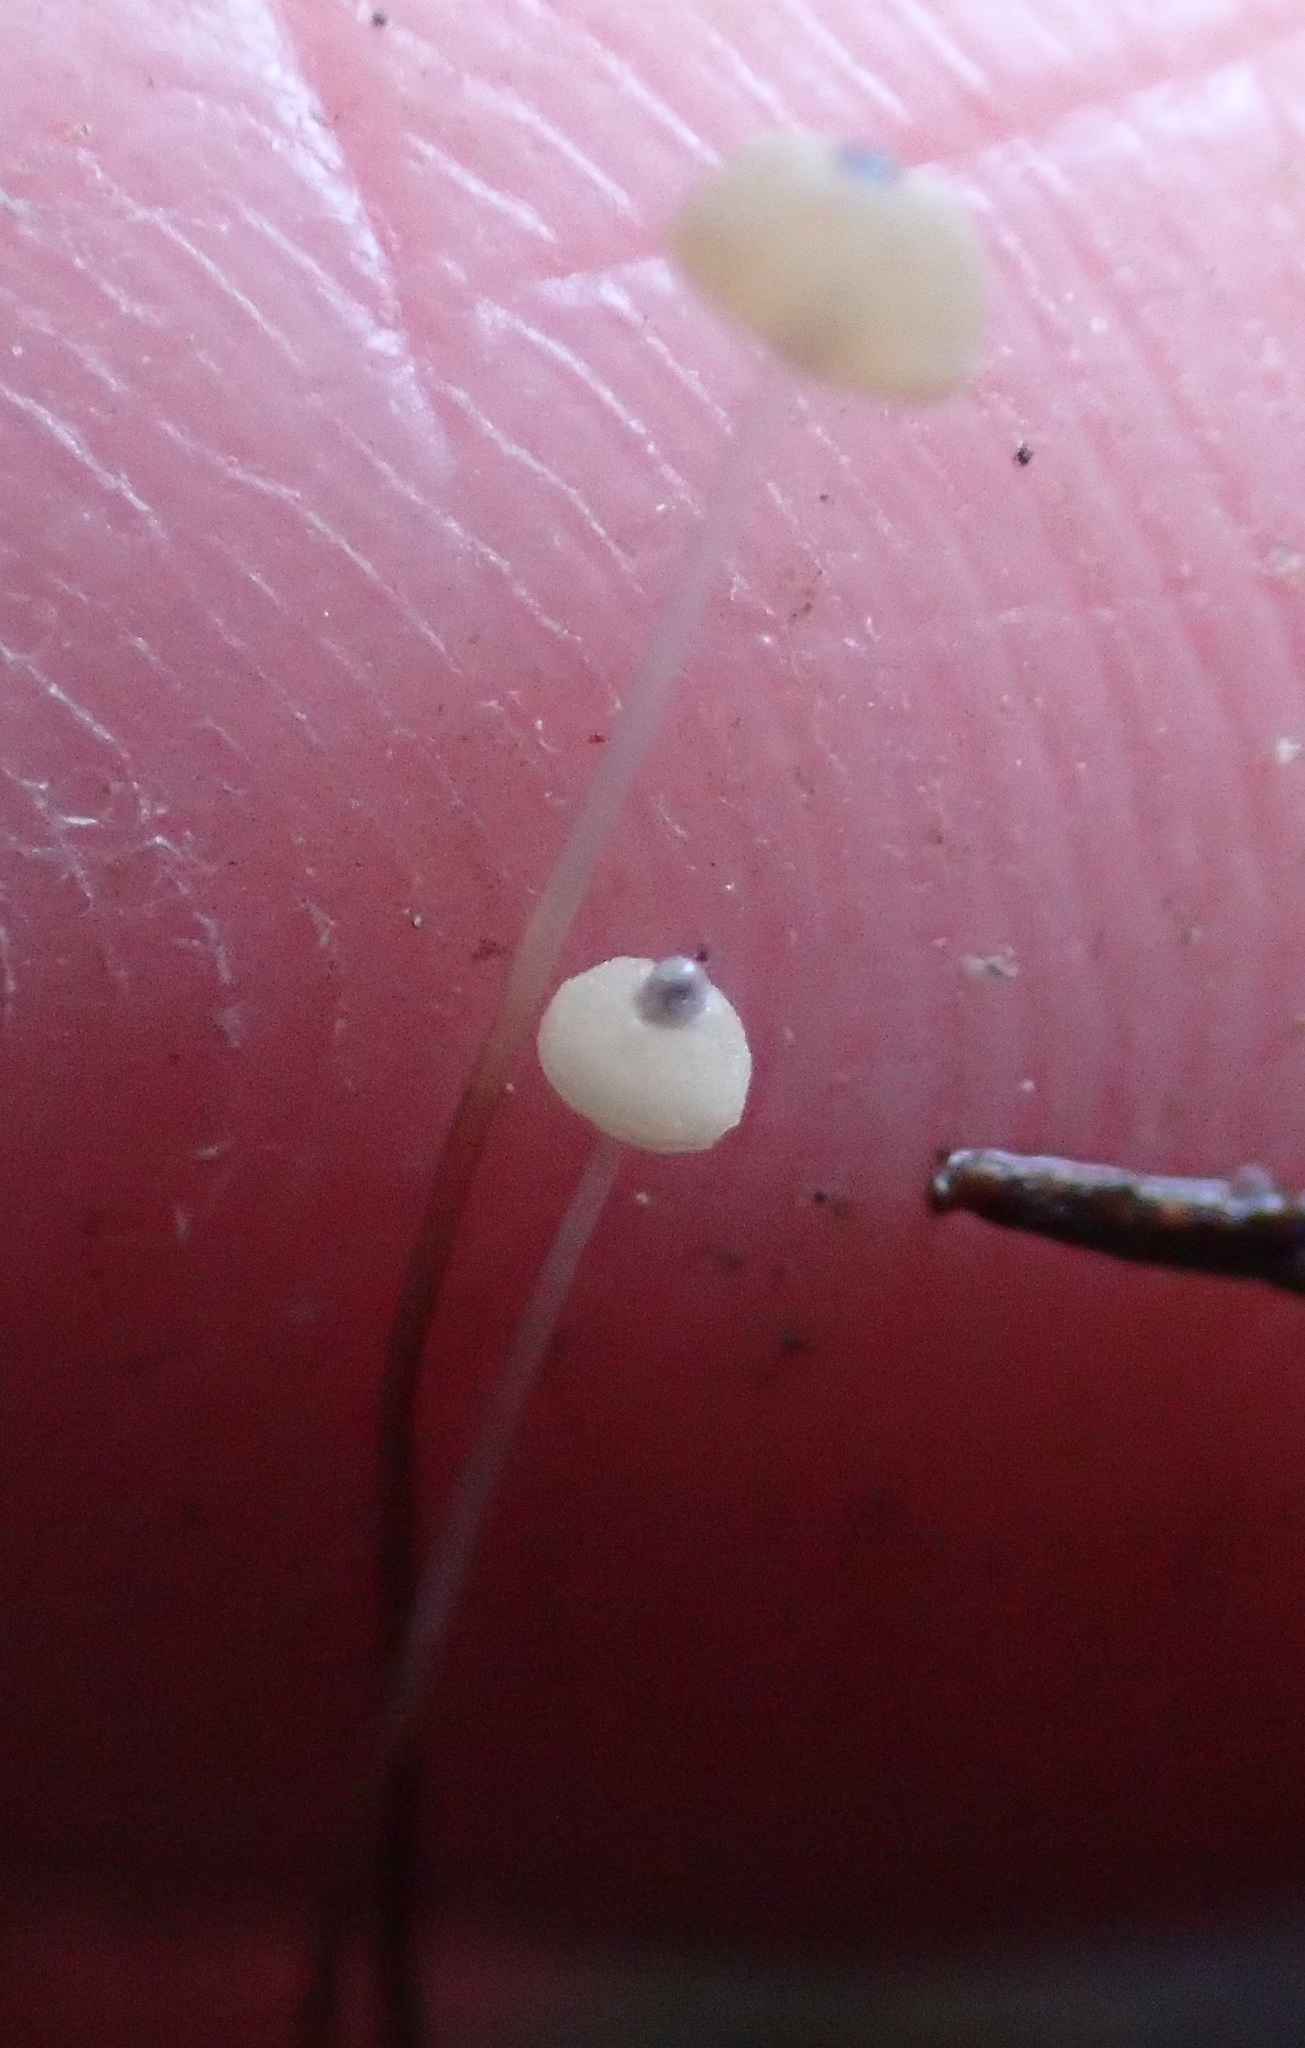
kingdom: Fungi
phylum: Basidiomycota
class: Agaricomycetes
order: Agaricales
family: Marasmiaceae
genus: Marasmius
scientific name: Marasmius crinis-equi
